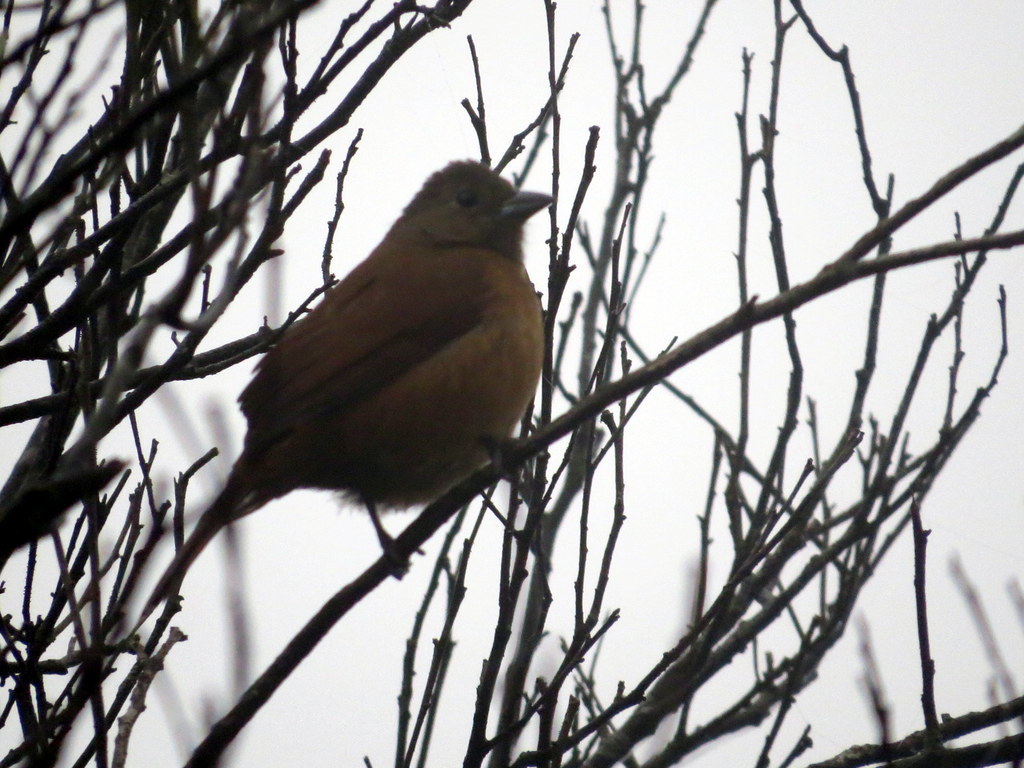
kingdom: Animalia
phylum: Chordata
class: Aves
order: Passeriformes
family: Thraupidae
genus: Tachyphonus
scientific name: Tachyphonus coronatus
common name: Ruby-crowned tanager
